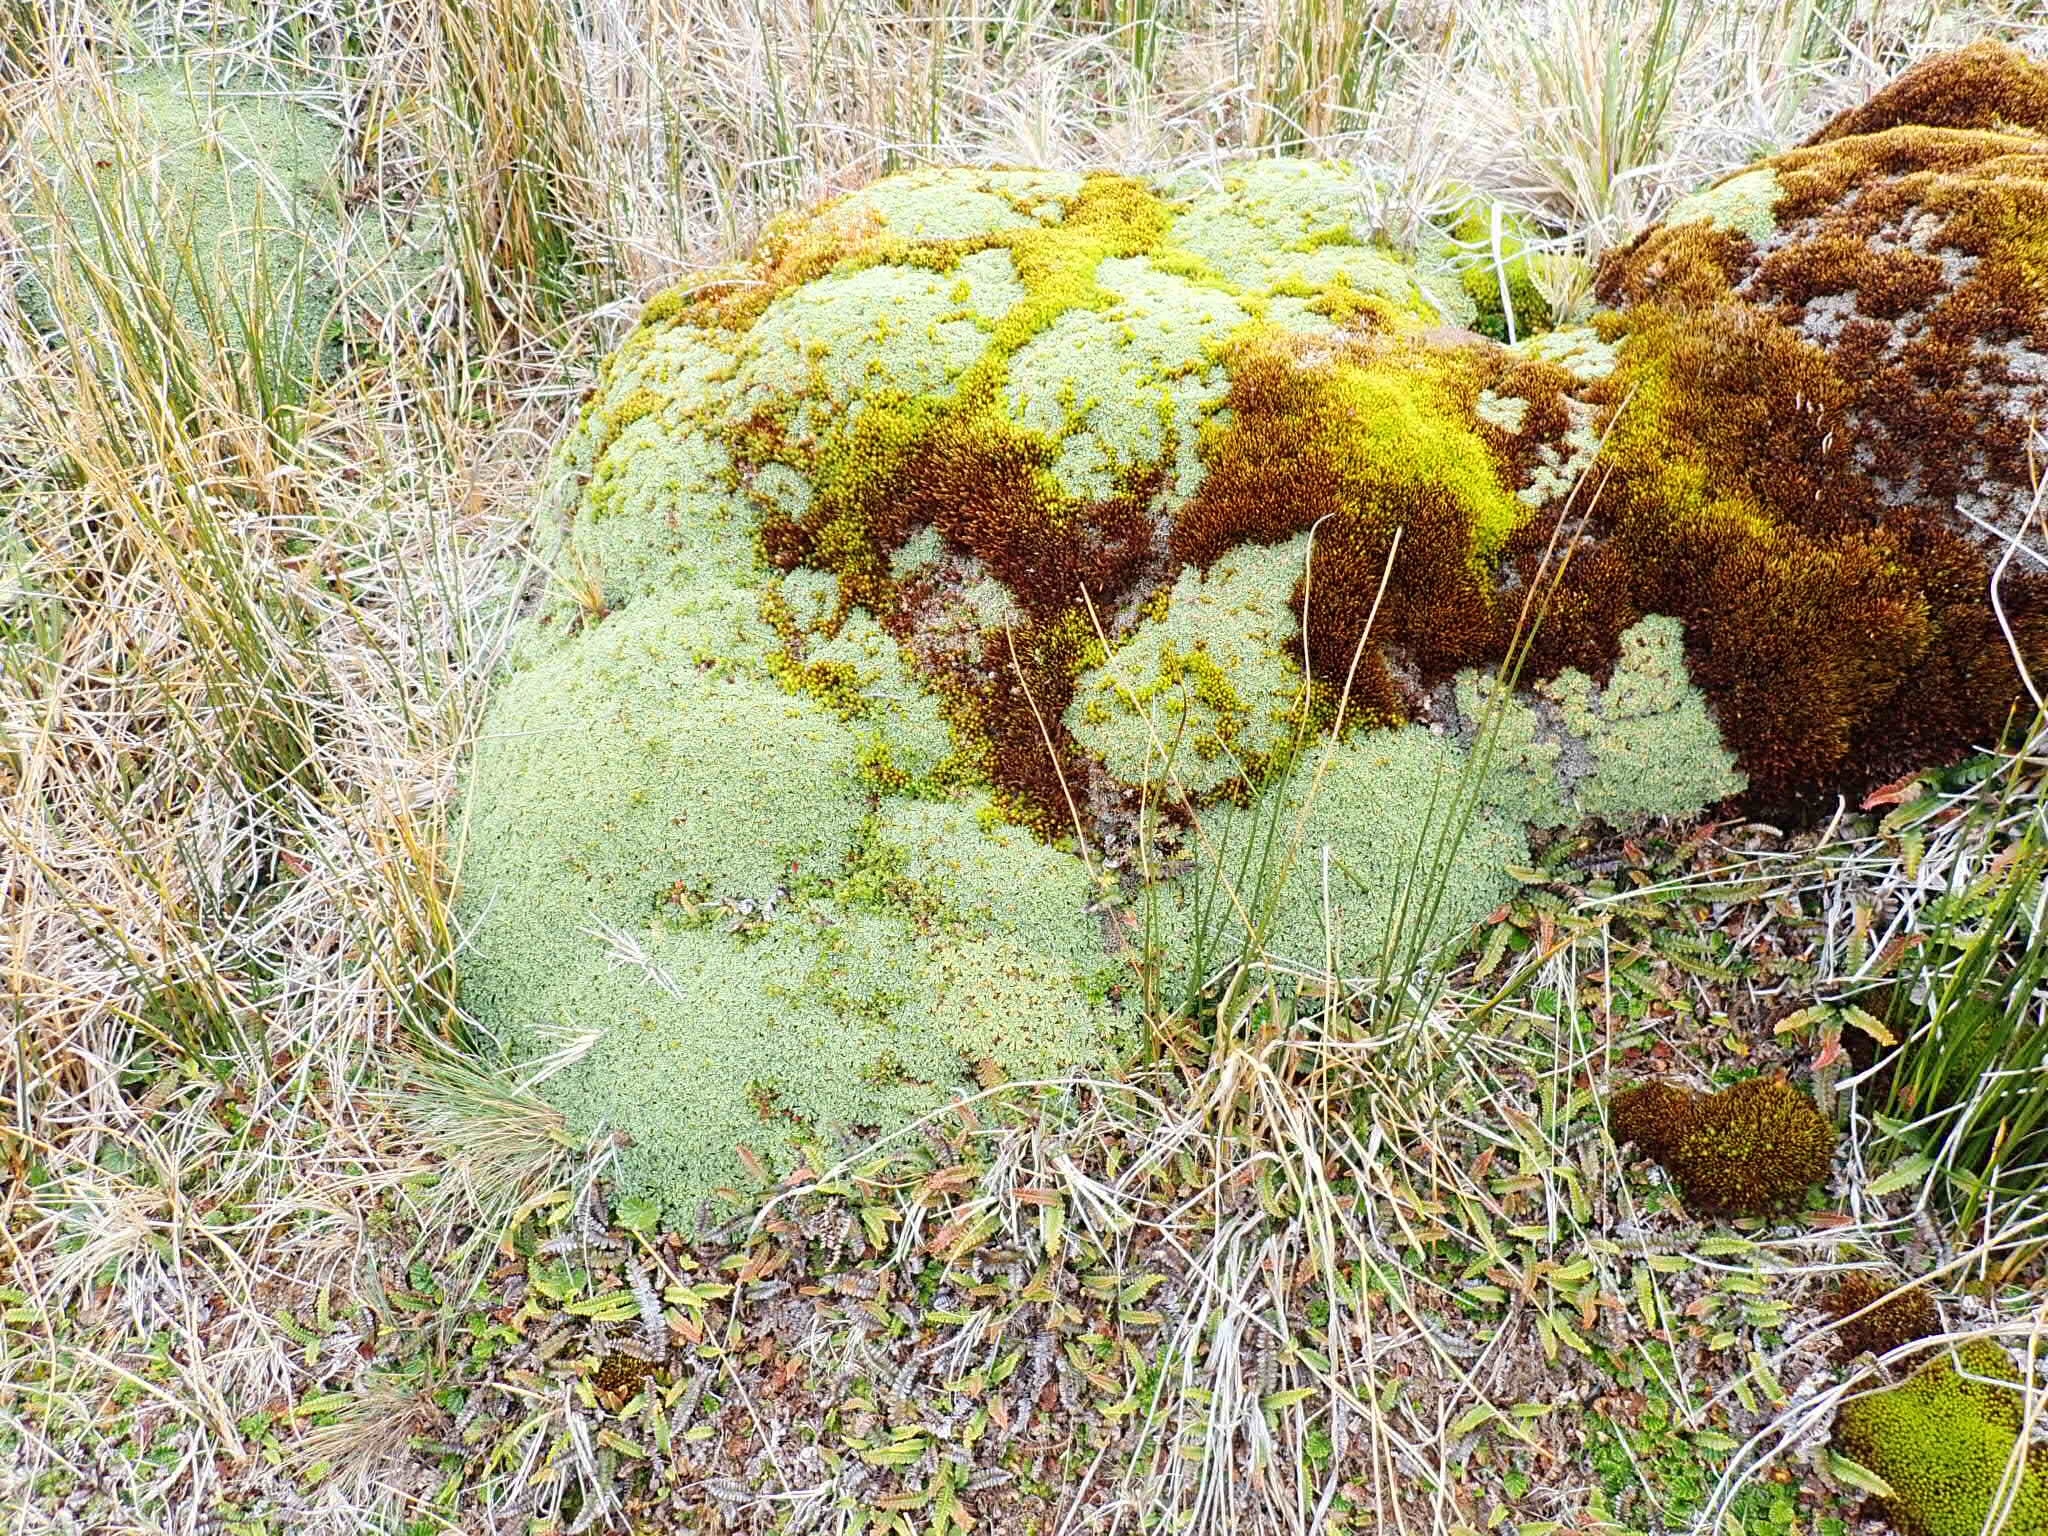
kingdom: Plantae
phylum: Tracheophyta
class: Magnoliopsida
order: Apiales
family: Apiaceae
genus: Bolax
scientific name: Bolax gummifera
